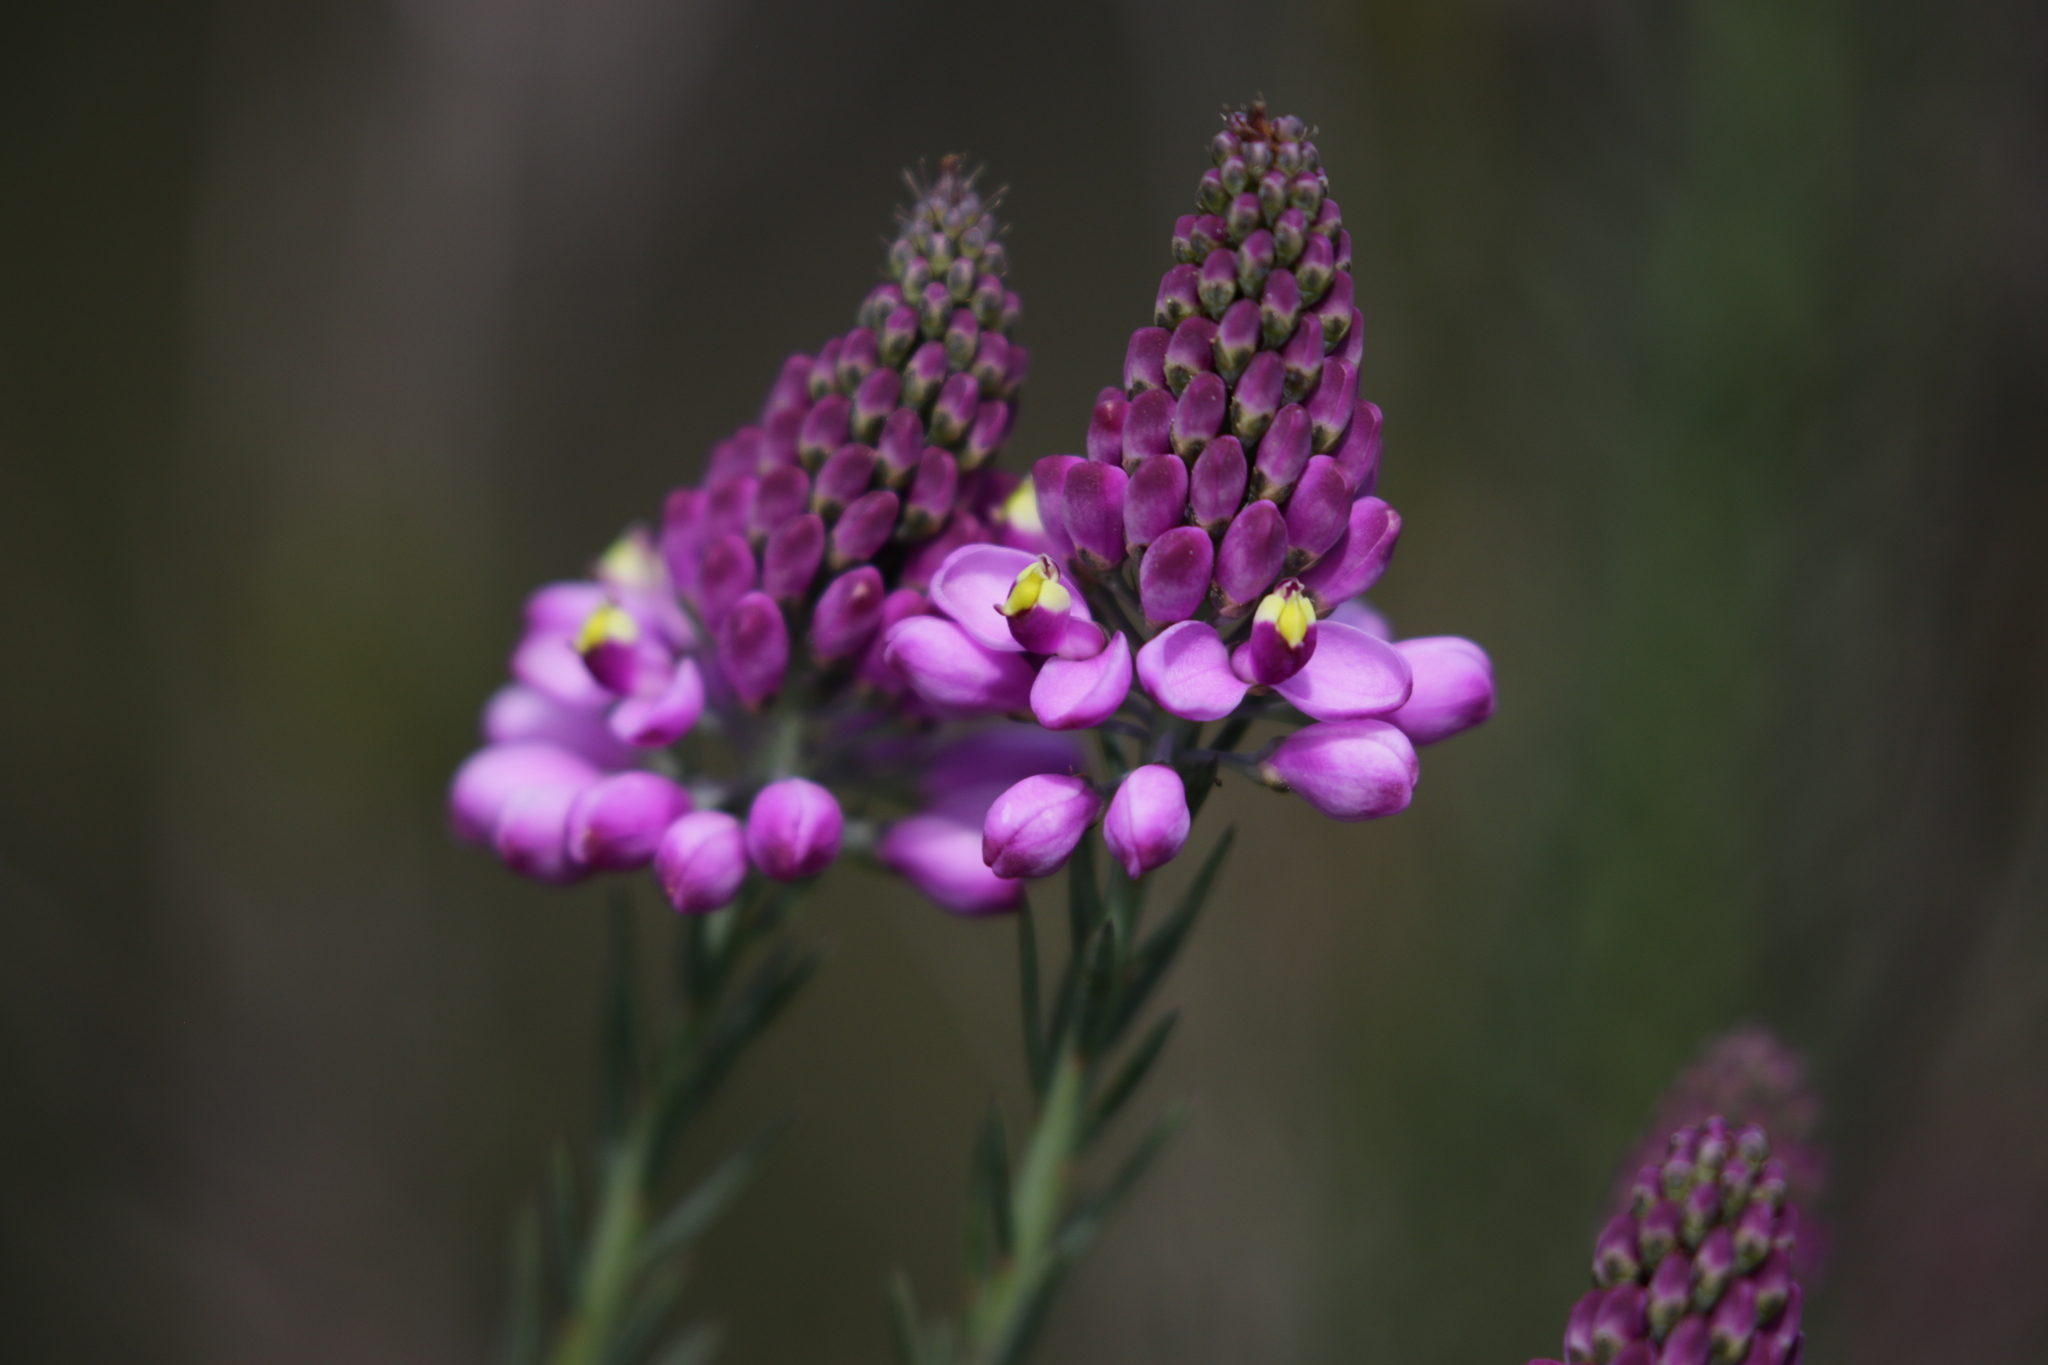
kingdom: Plantae
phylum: Tracheophyta
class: Magnoliopsida
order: Fabales
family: Polygalaceae
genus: Comesperma
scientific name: Comesperma acerosum
